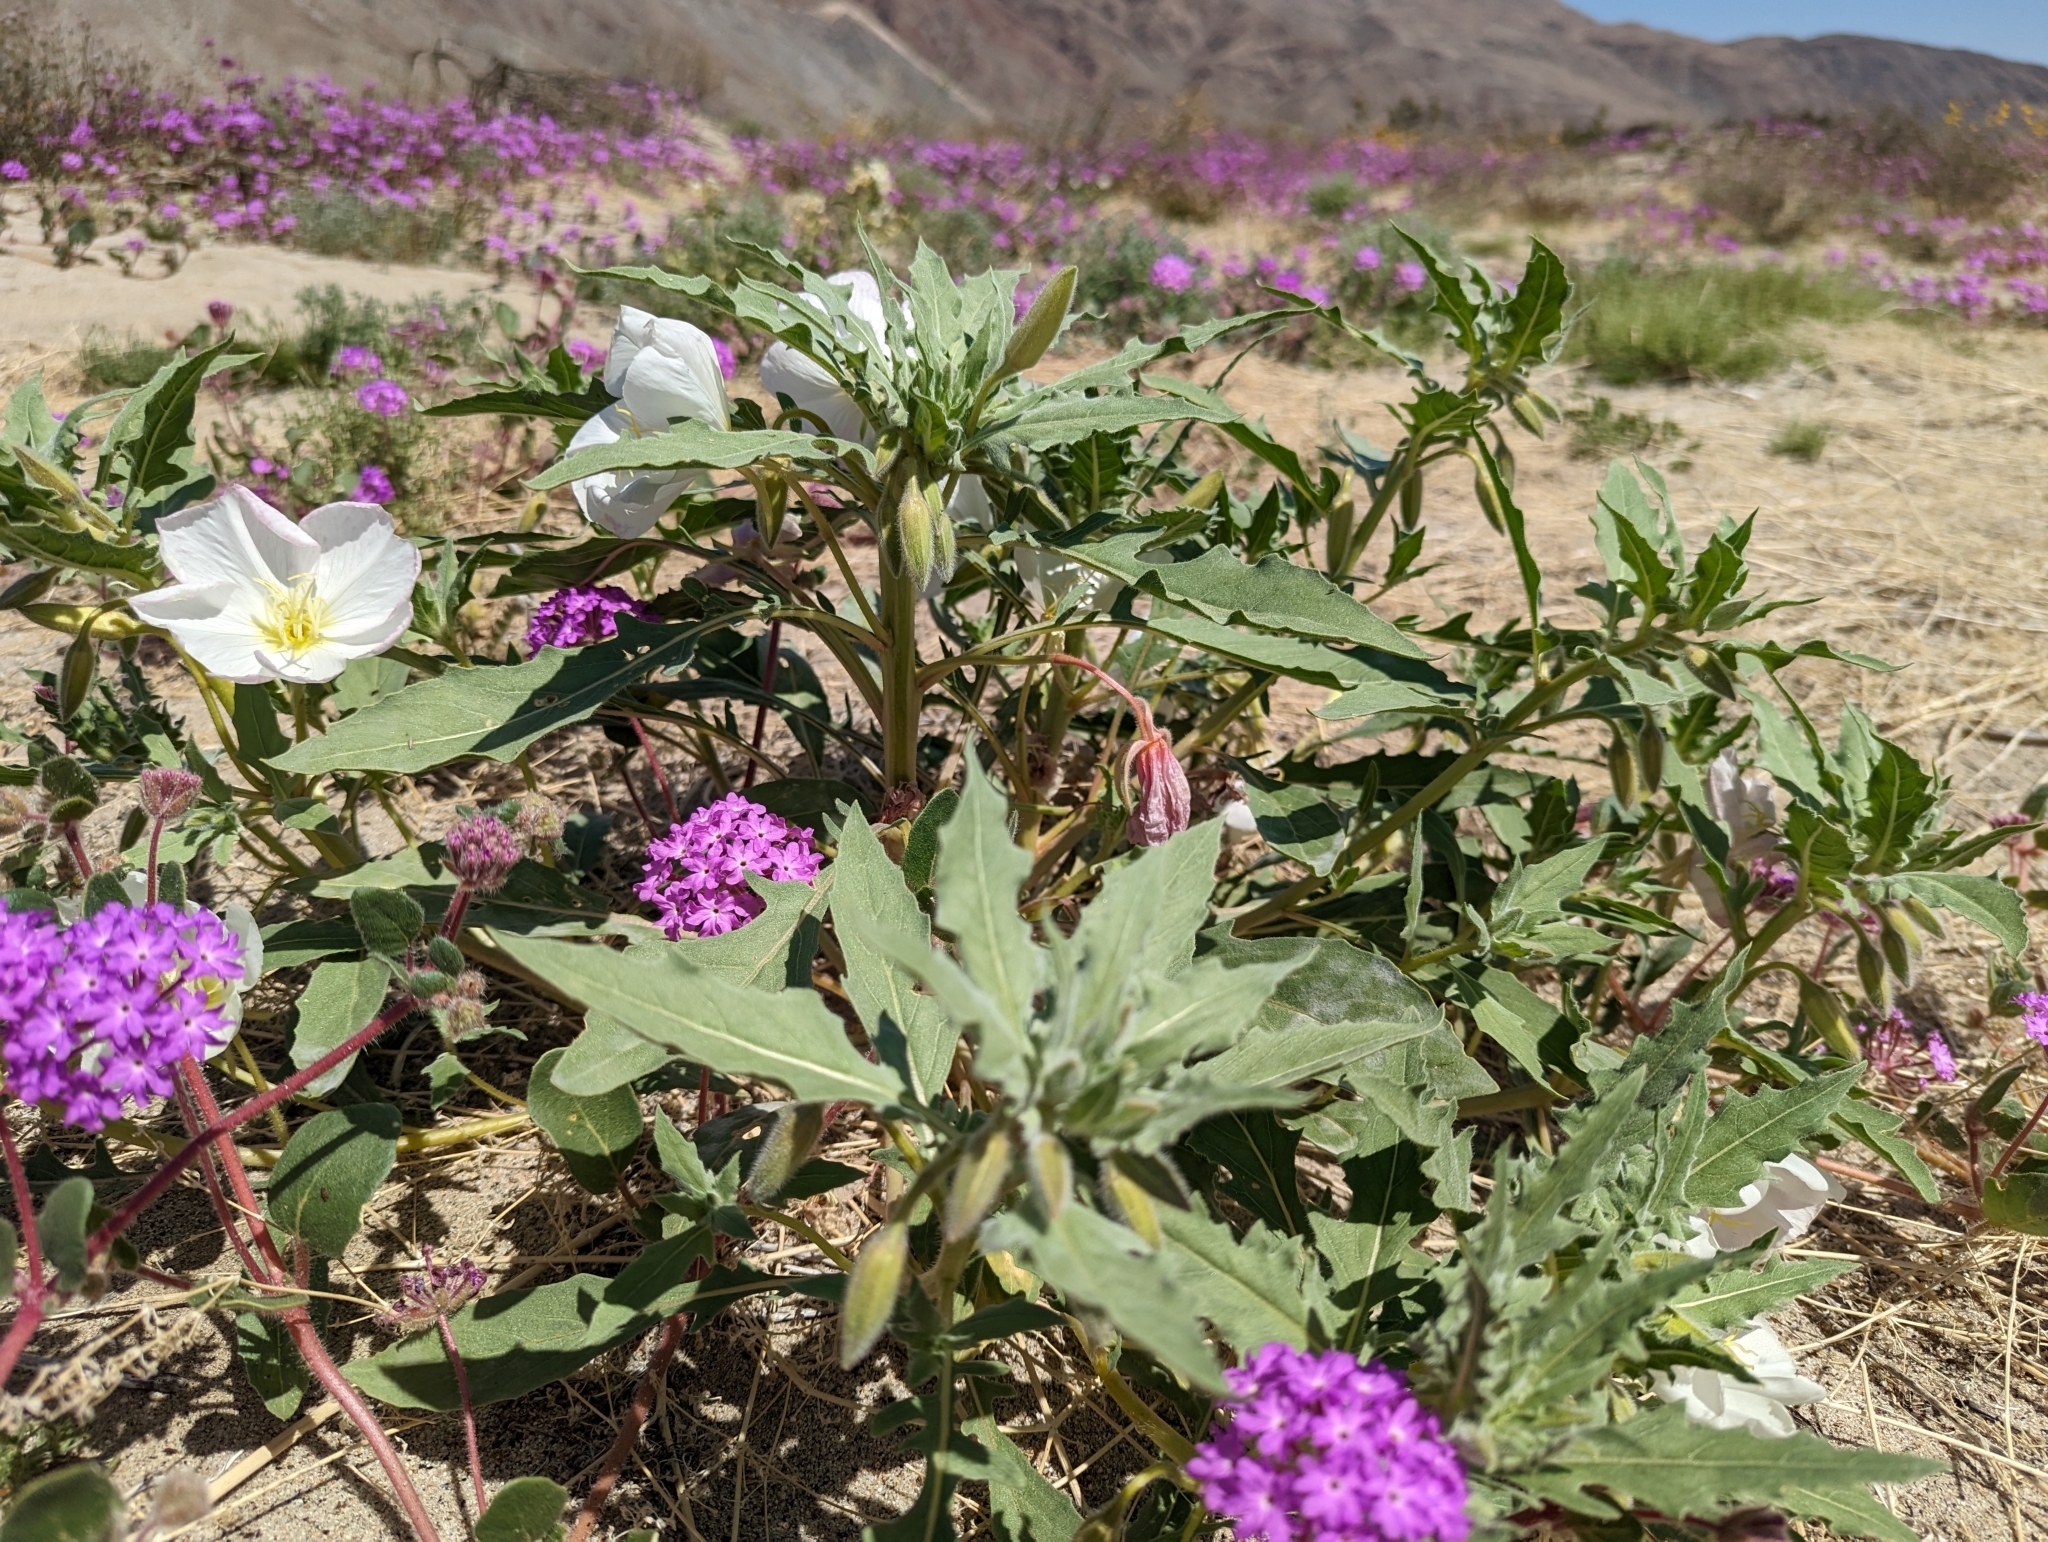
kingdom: Plantae
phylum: Tracheophyta
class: Magnoliopsida
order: Myrtales
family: Onagraceae
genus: Oenothera
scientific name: Oenothera deltoides
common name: Basket evening-primrose
